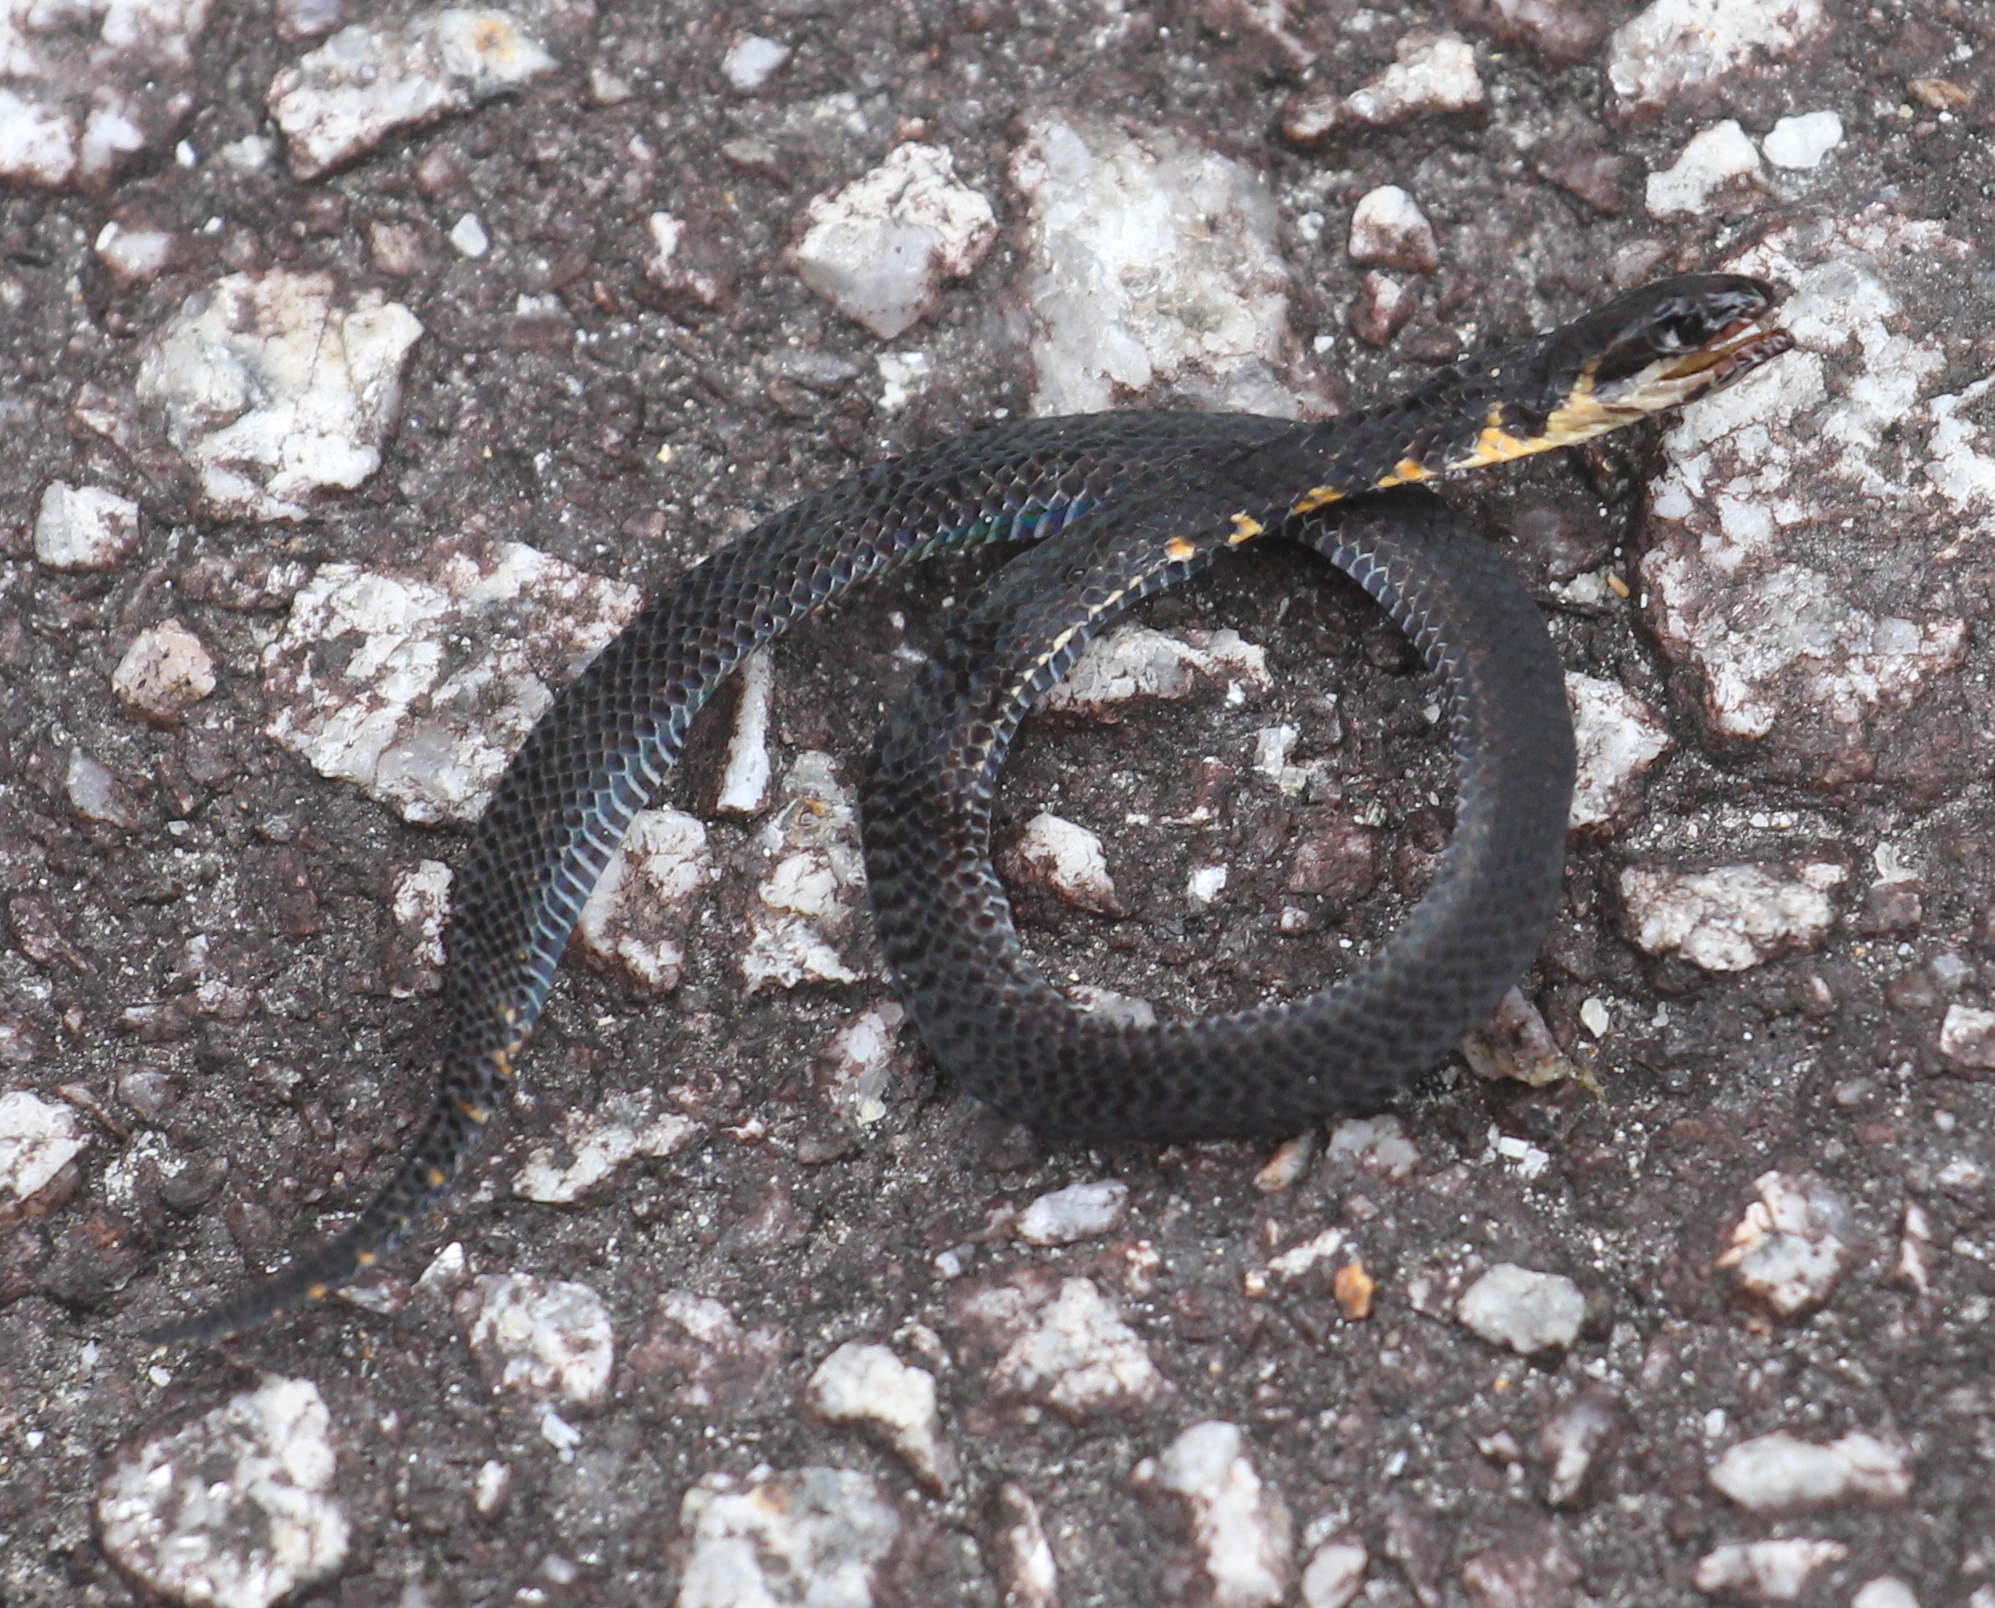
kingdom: Animalia
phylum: Chordata
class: Squamata
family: Colubridae
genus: Macrocalamus
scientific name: Macrocalamus gentingensis
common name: Genting highlands reed snake
